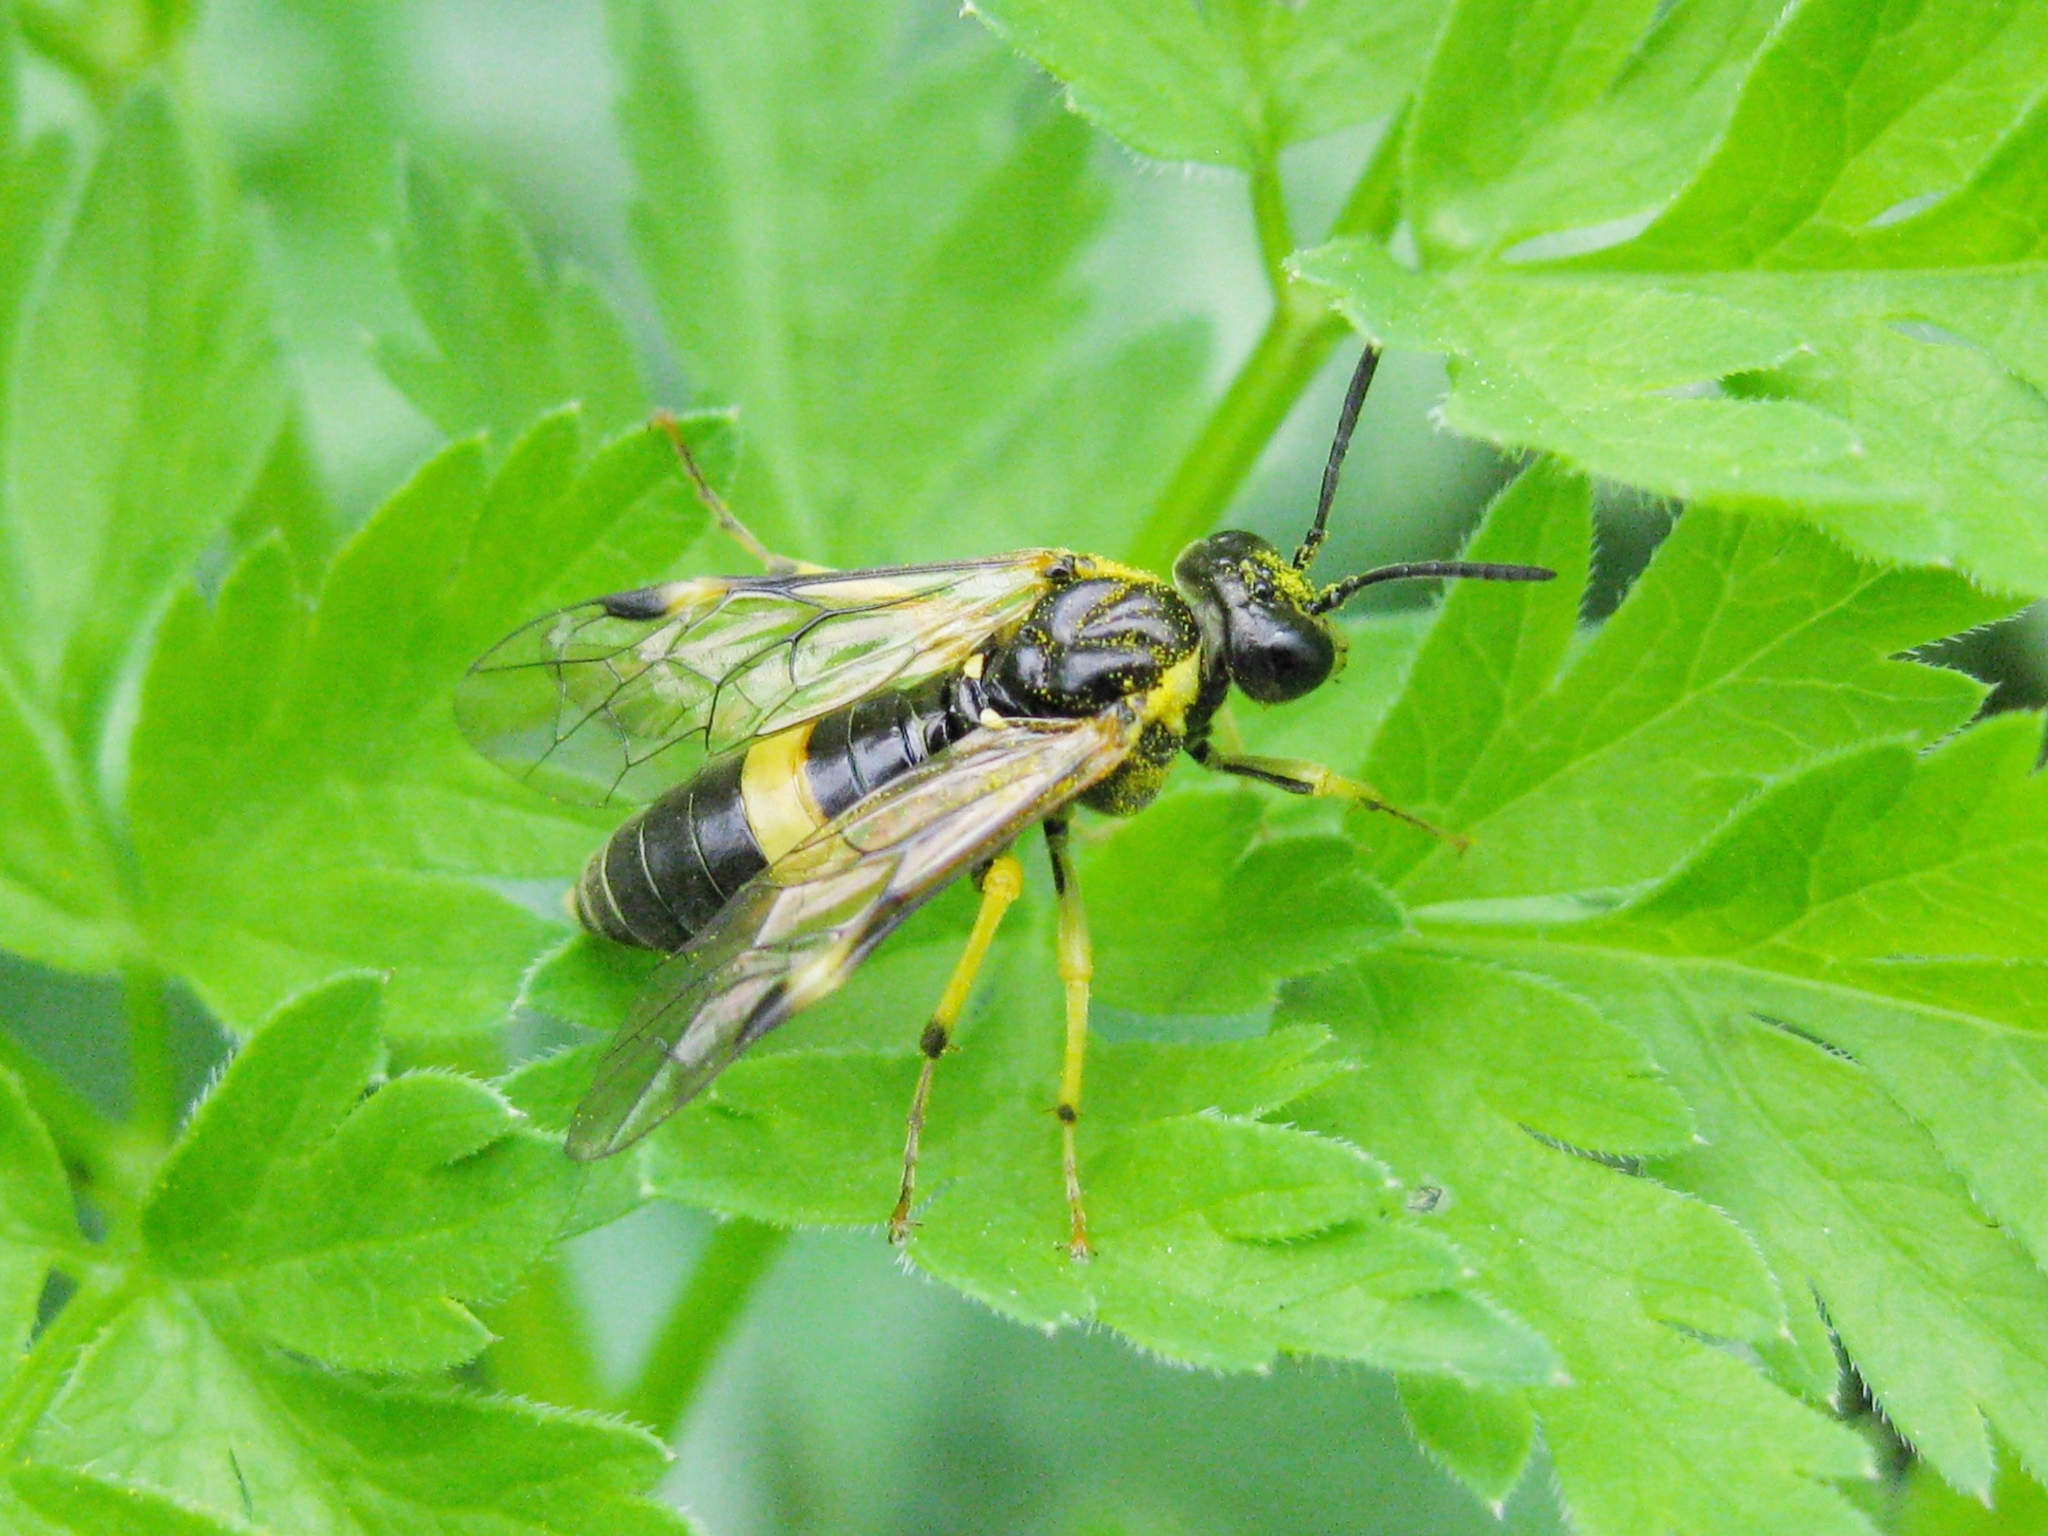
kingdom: Animalia
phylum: Arthropoda
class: Insecta
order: Hymenoptera
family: Tenthredinidae
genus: Tenthredo
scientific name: Tenthredo talyshensis
